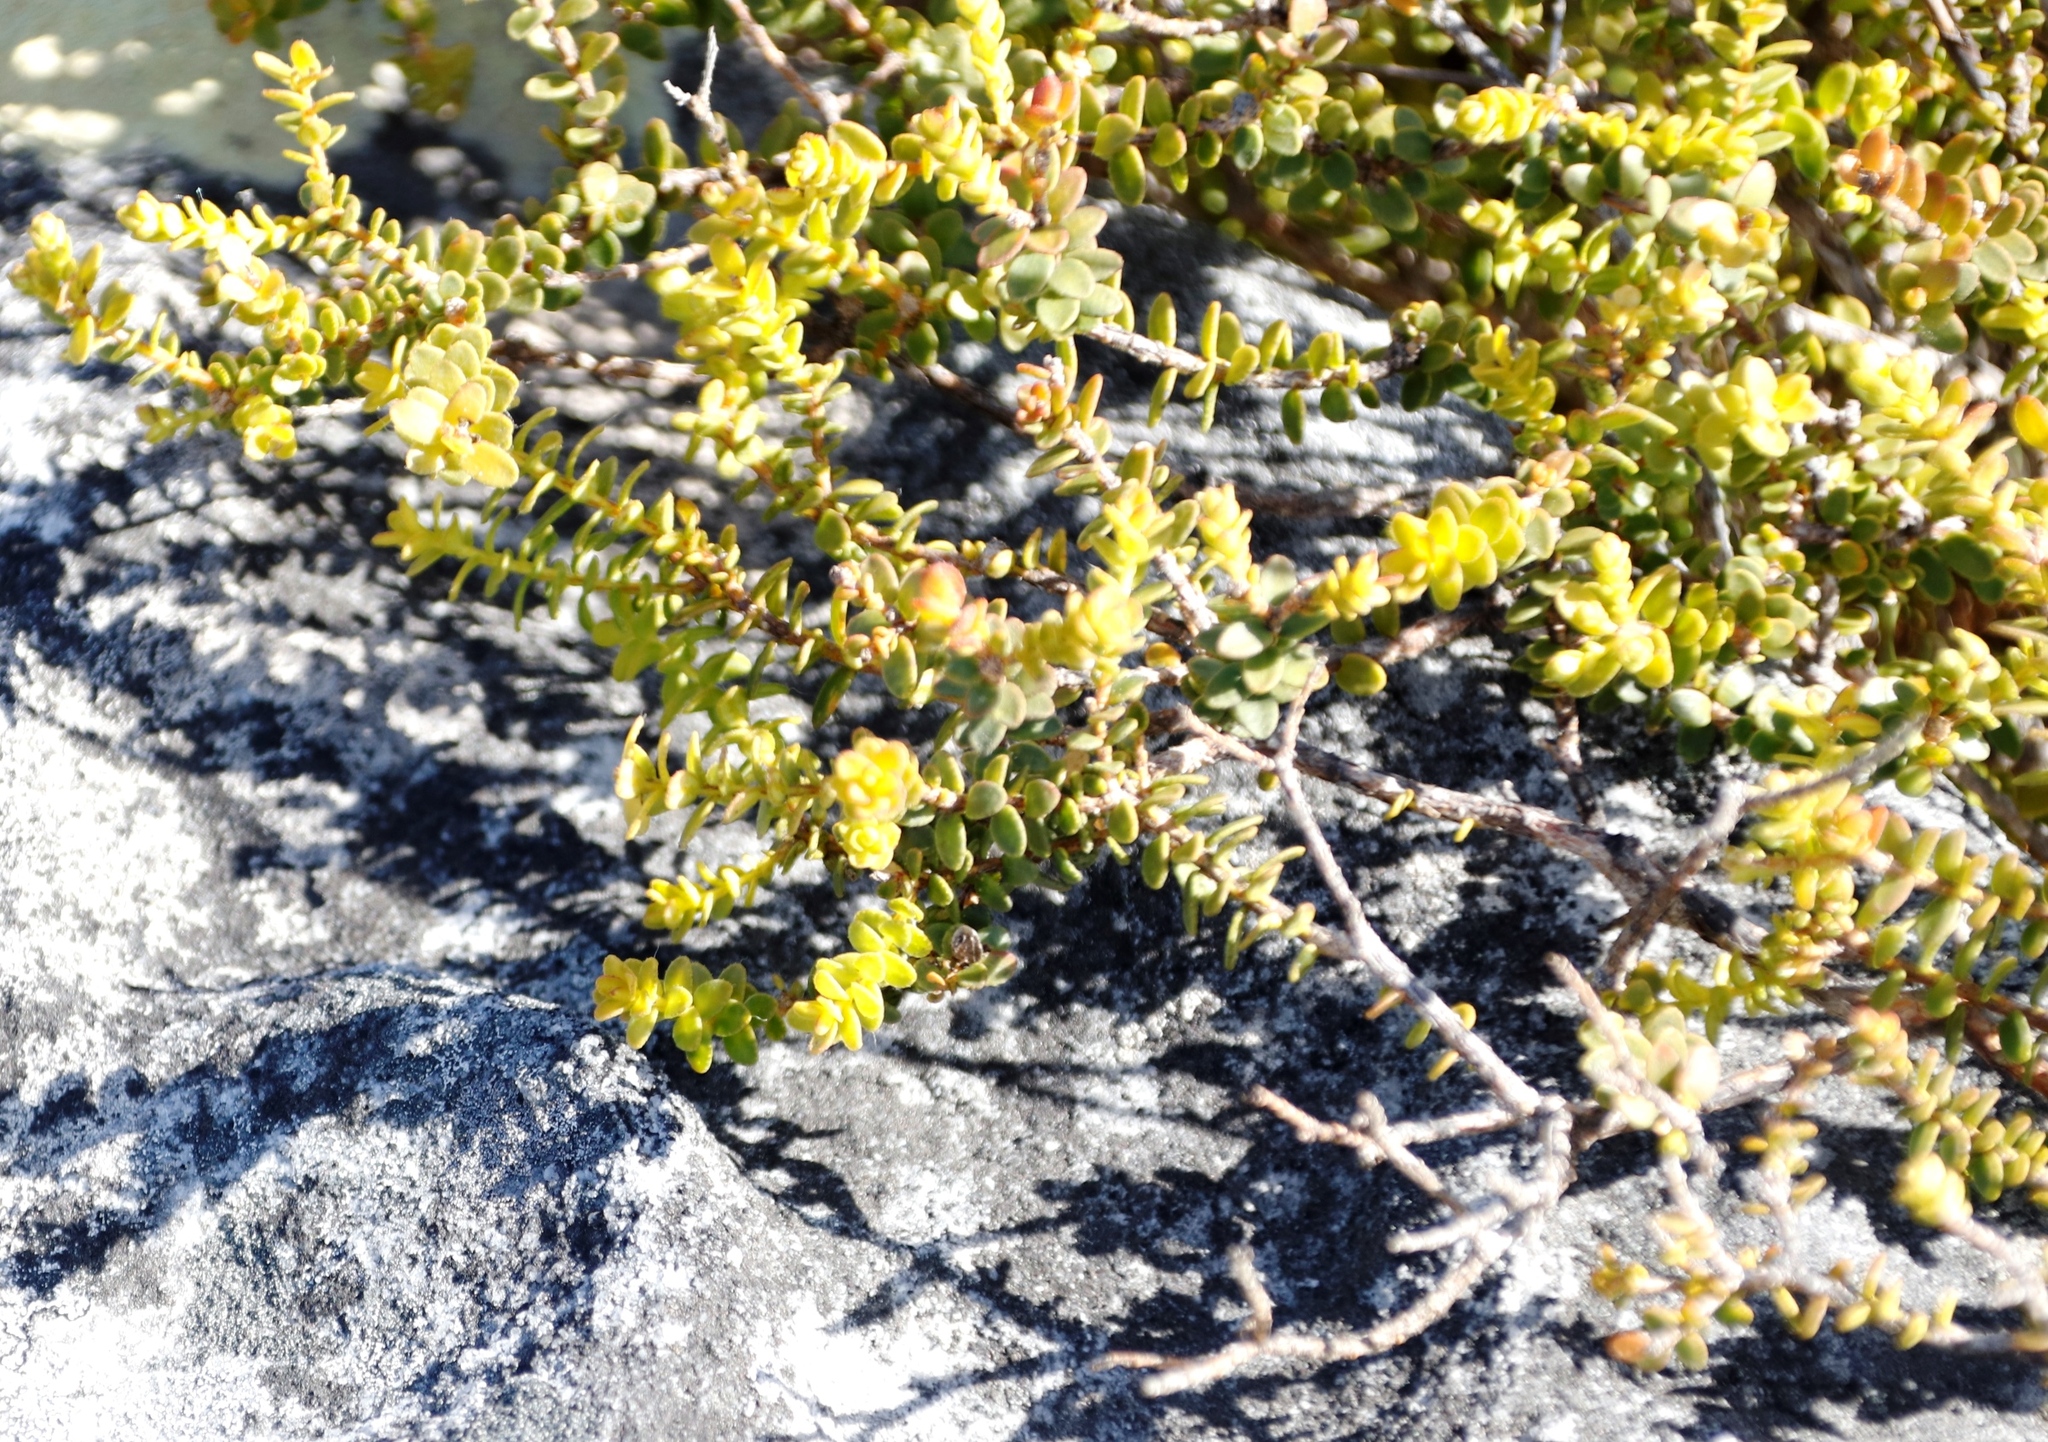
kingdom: Plantae
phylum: Tracheophyta
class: Magnoliopsida
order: Proteales
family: Proteaceae
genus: Diastella
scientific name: Diastella divaricata
